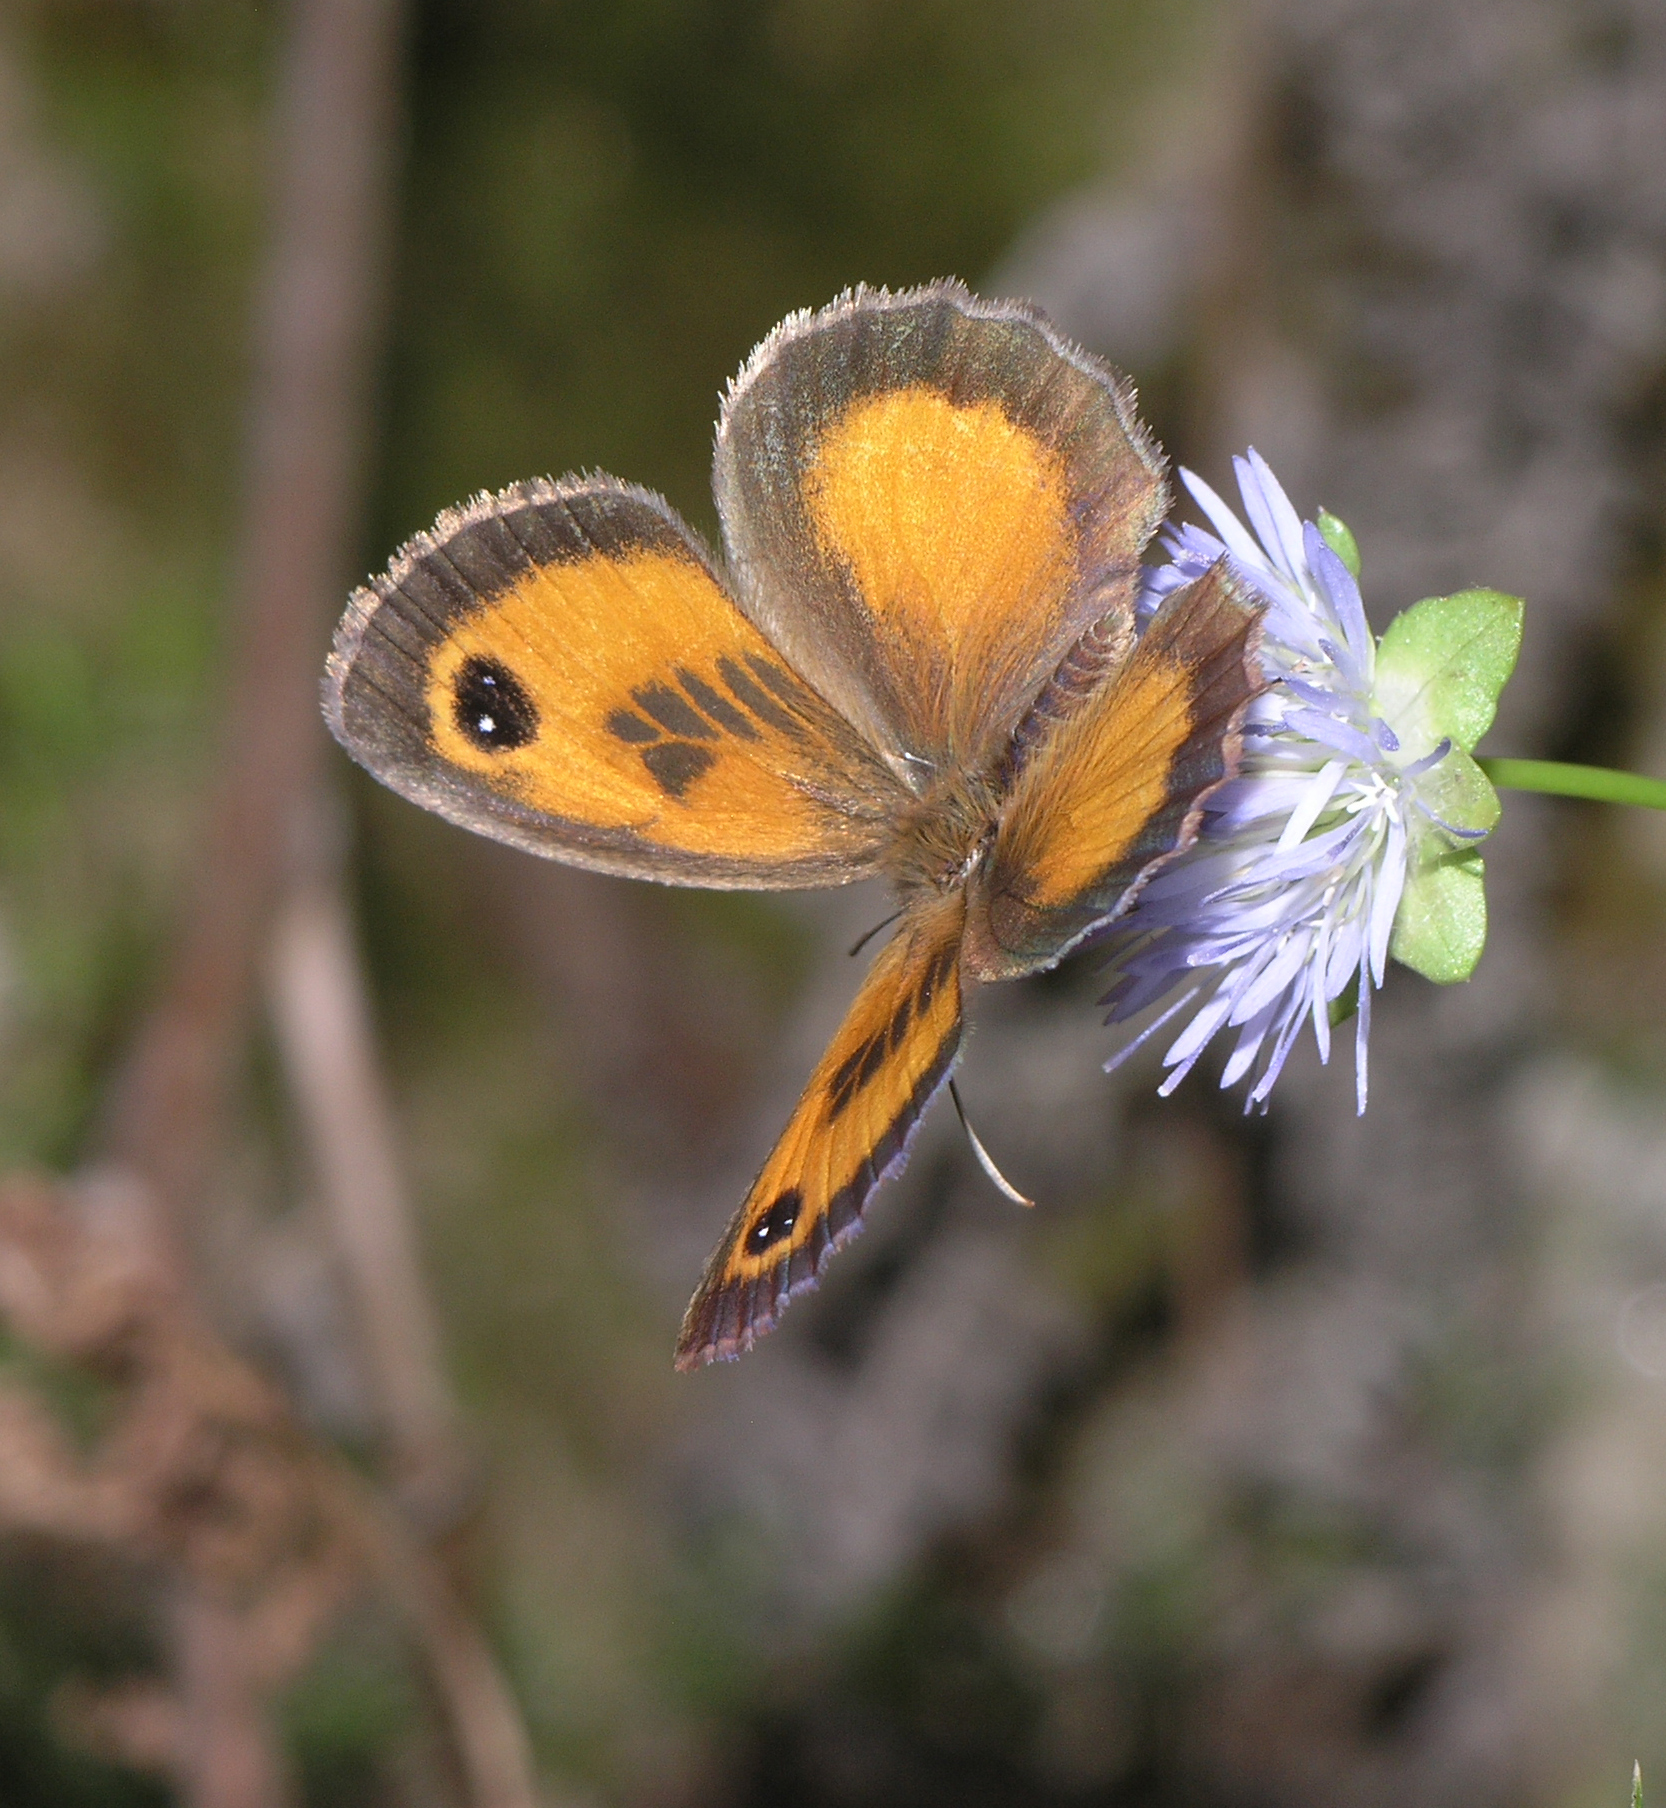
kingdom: Animalia
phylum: Arthropoda
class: Insecta
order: Lepidoptera
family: Nymphalidae
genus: Pyronia
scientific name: Pyronia cecilia
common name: Southern gatekeeper
